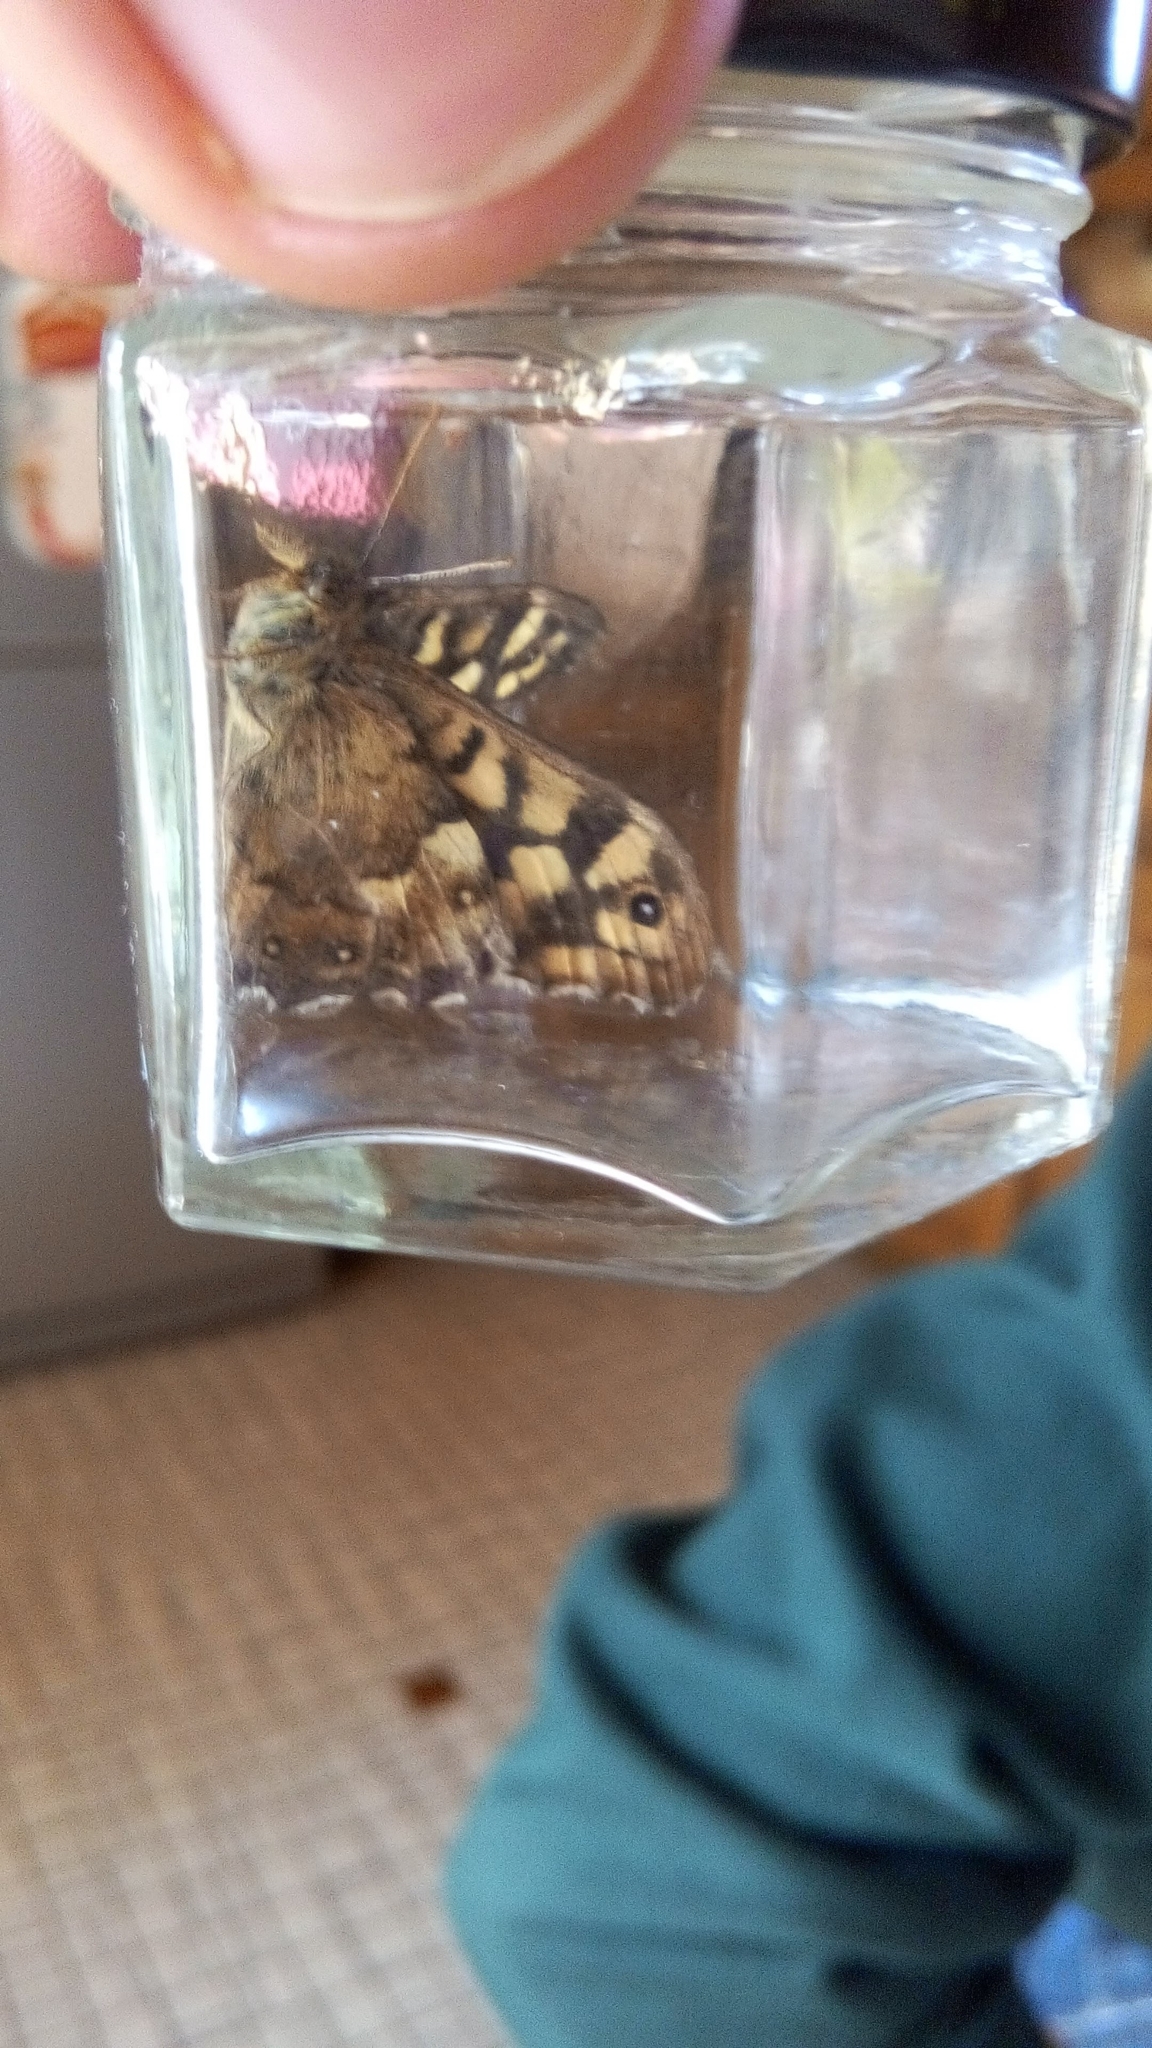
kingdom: Animalia
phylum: Arthropoda
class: Insecta
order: Lepidoptera
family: Nymphalidae
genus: Pararge
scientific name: Pararge aegeria
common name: Speckled wood
